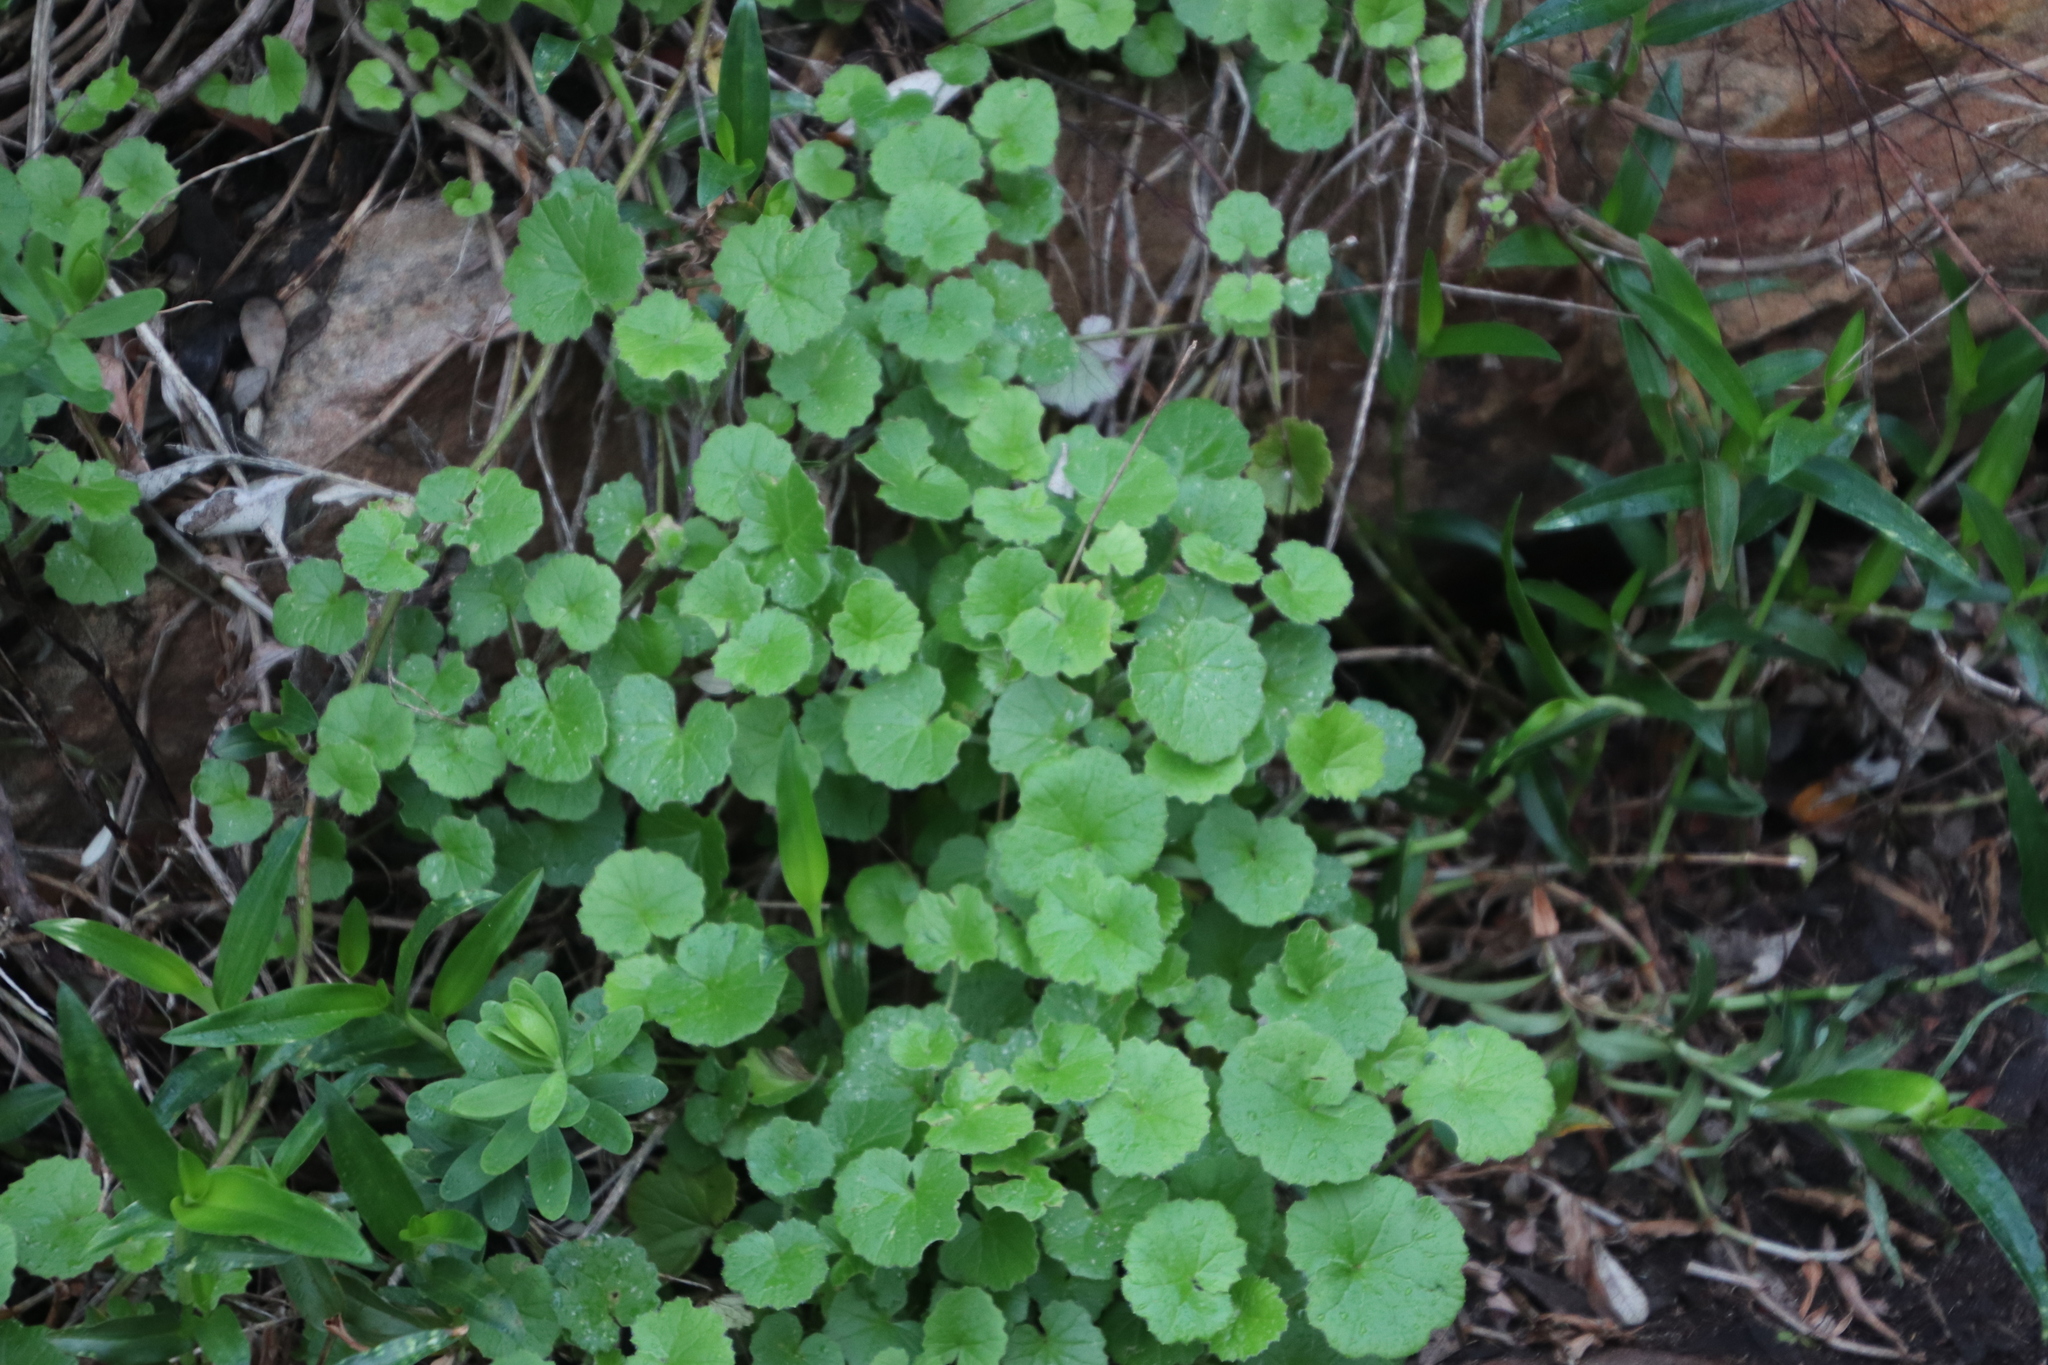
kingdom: Plantae
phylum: Tracheophyta
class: Magnoliopsida
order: Asterales
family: Asteraceae
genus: Cineraria
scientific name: Cineraria geifolia
